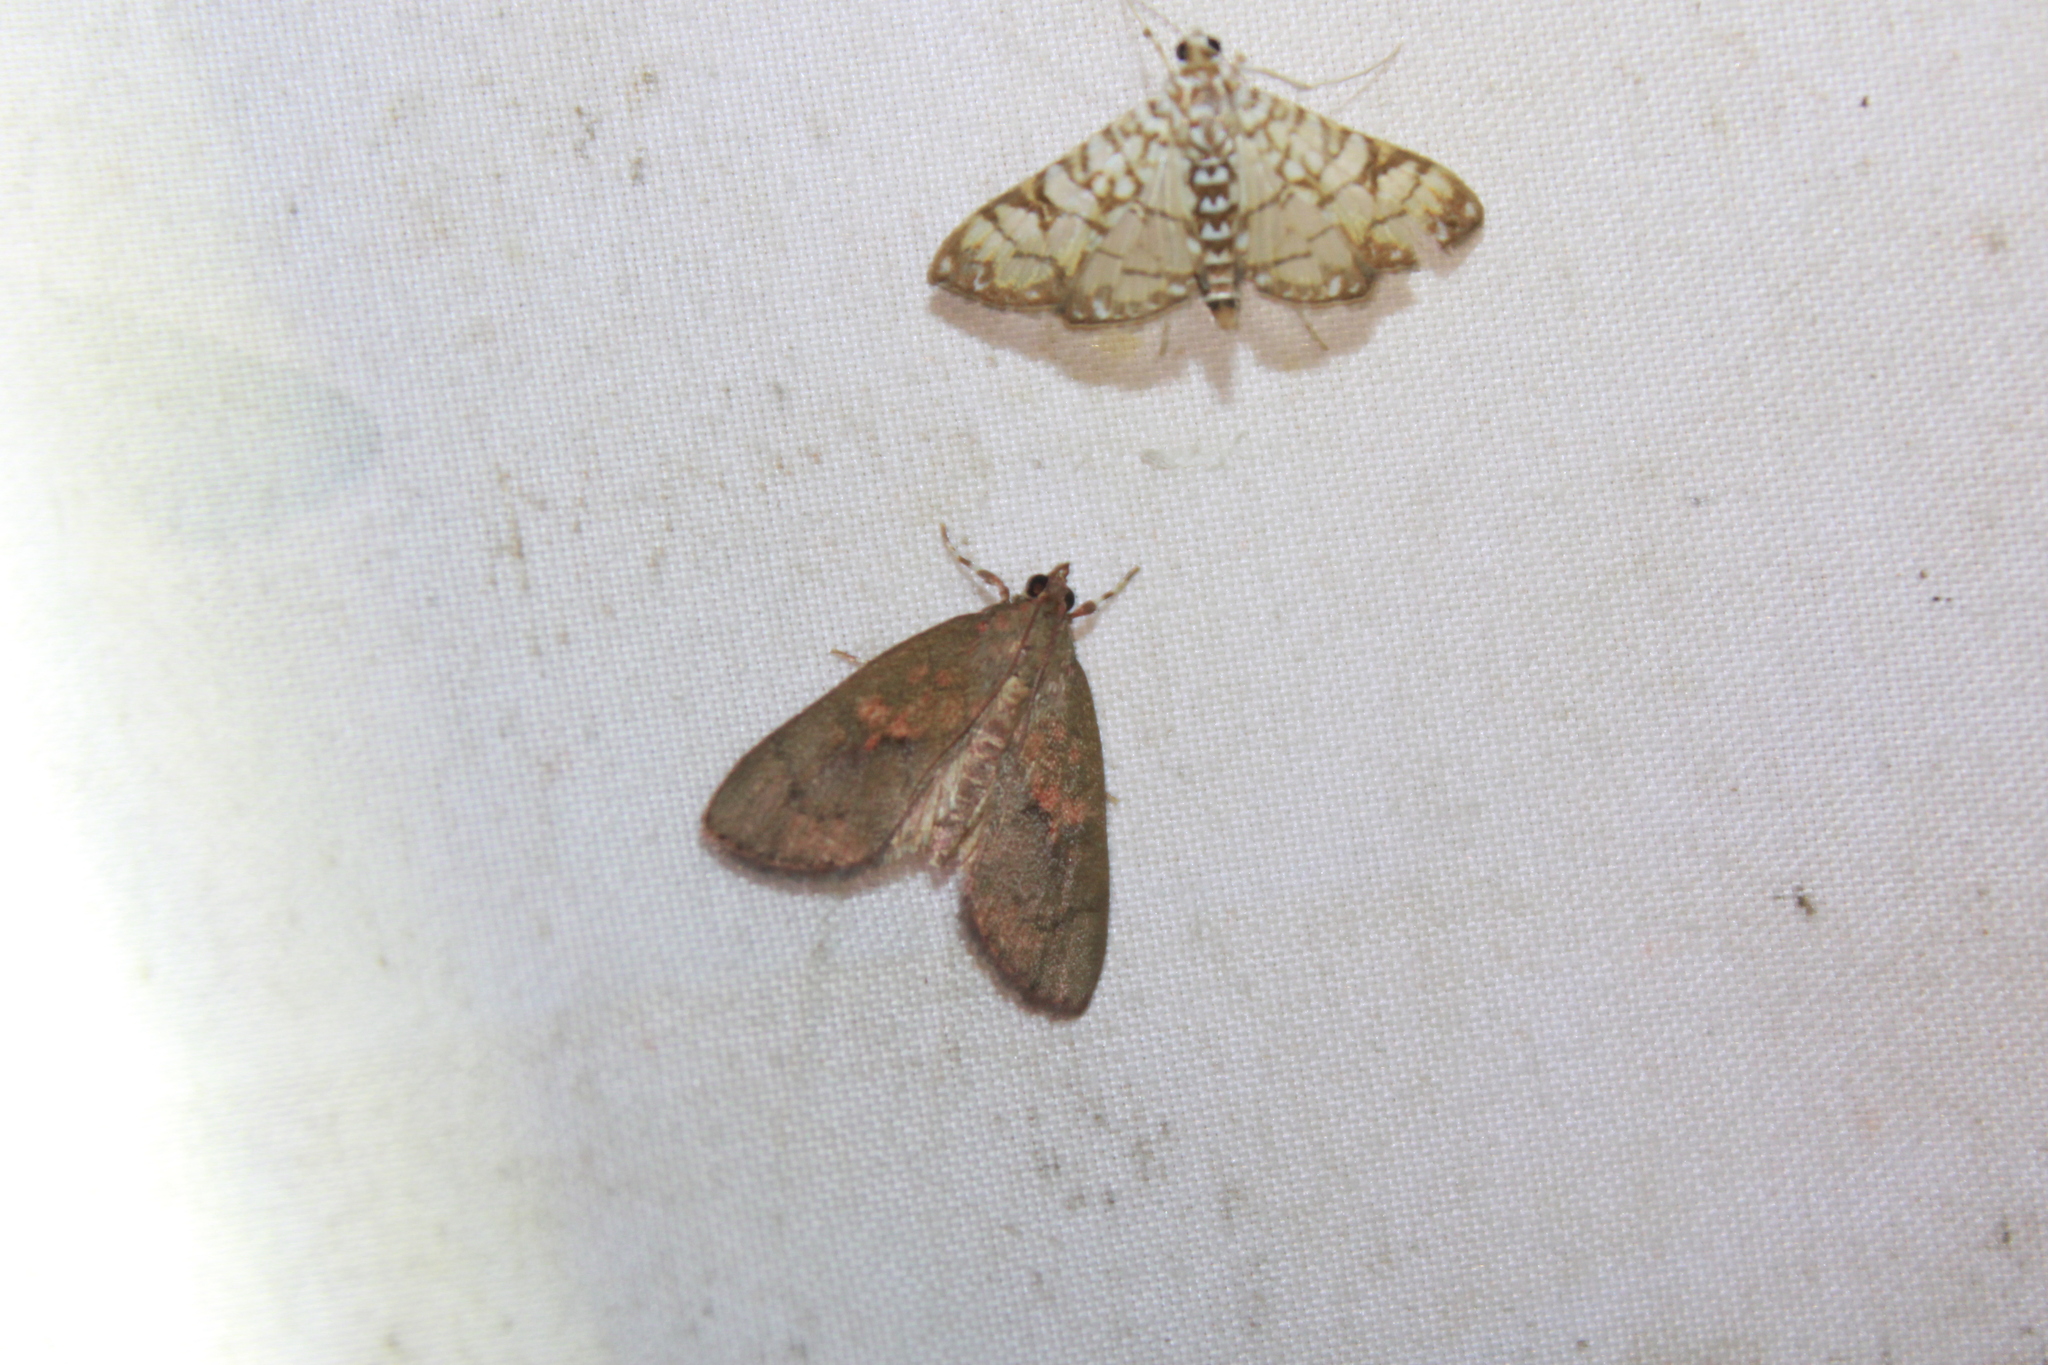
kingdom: Animalia
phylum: Arthropoda
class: Insecta
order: Lepidoptera
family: Crambidae
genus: Mimophobetron
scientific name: Mimophobetron pyropsalis
